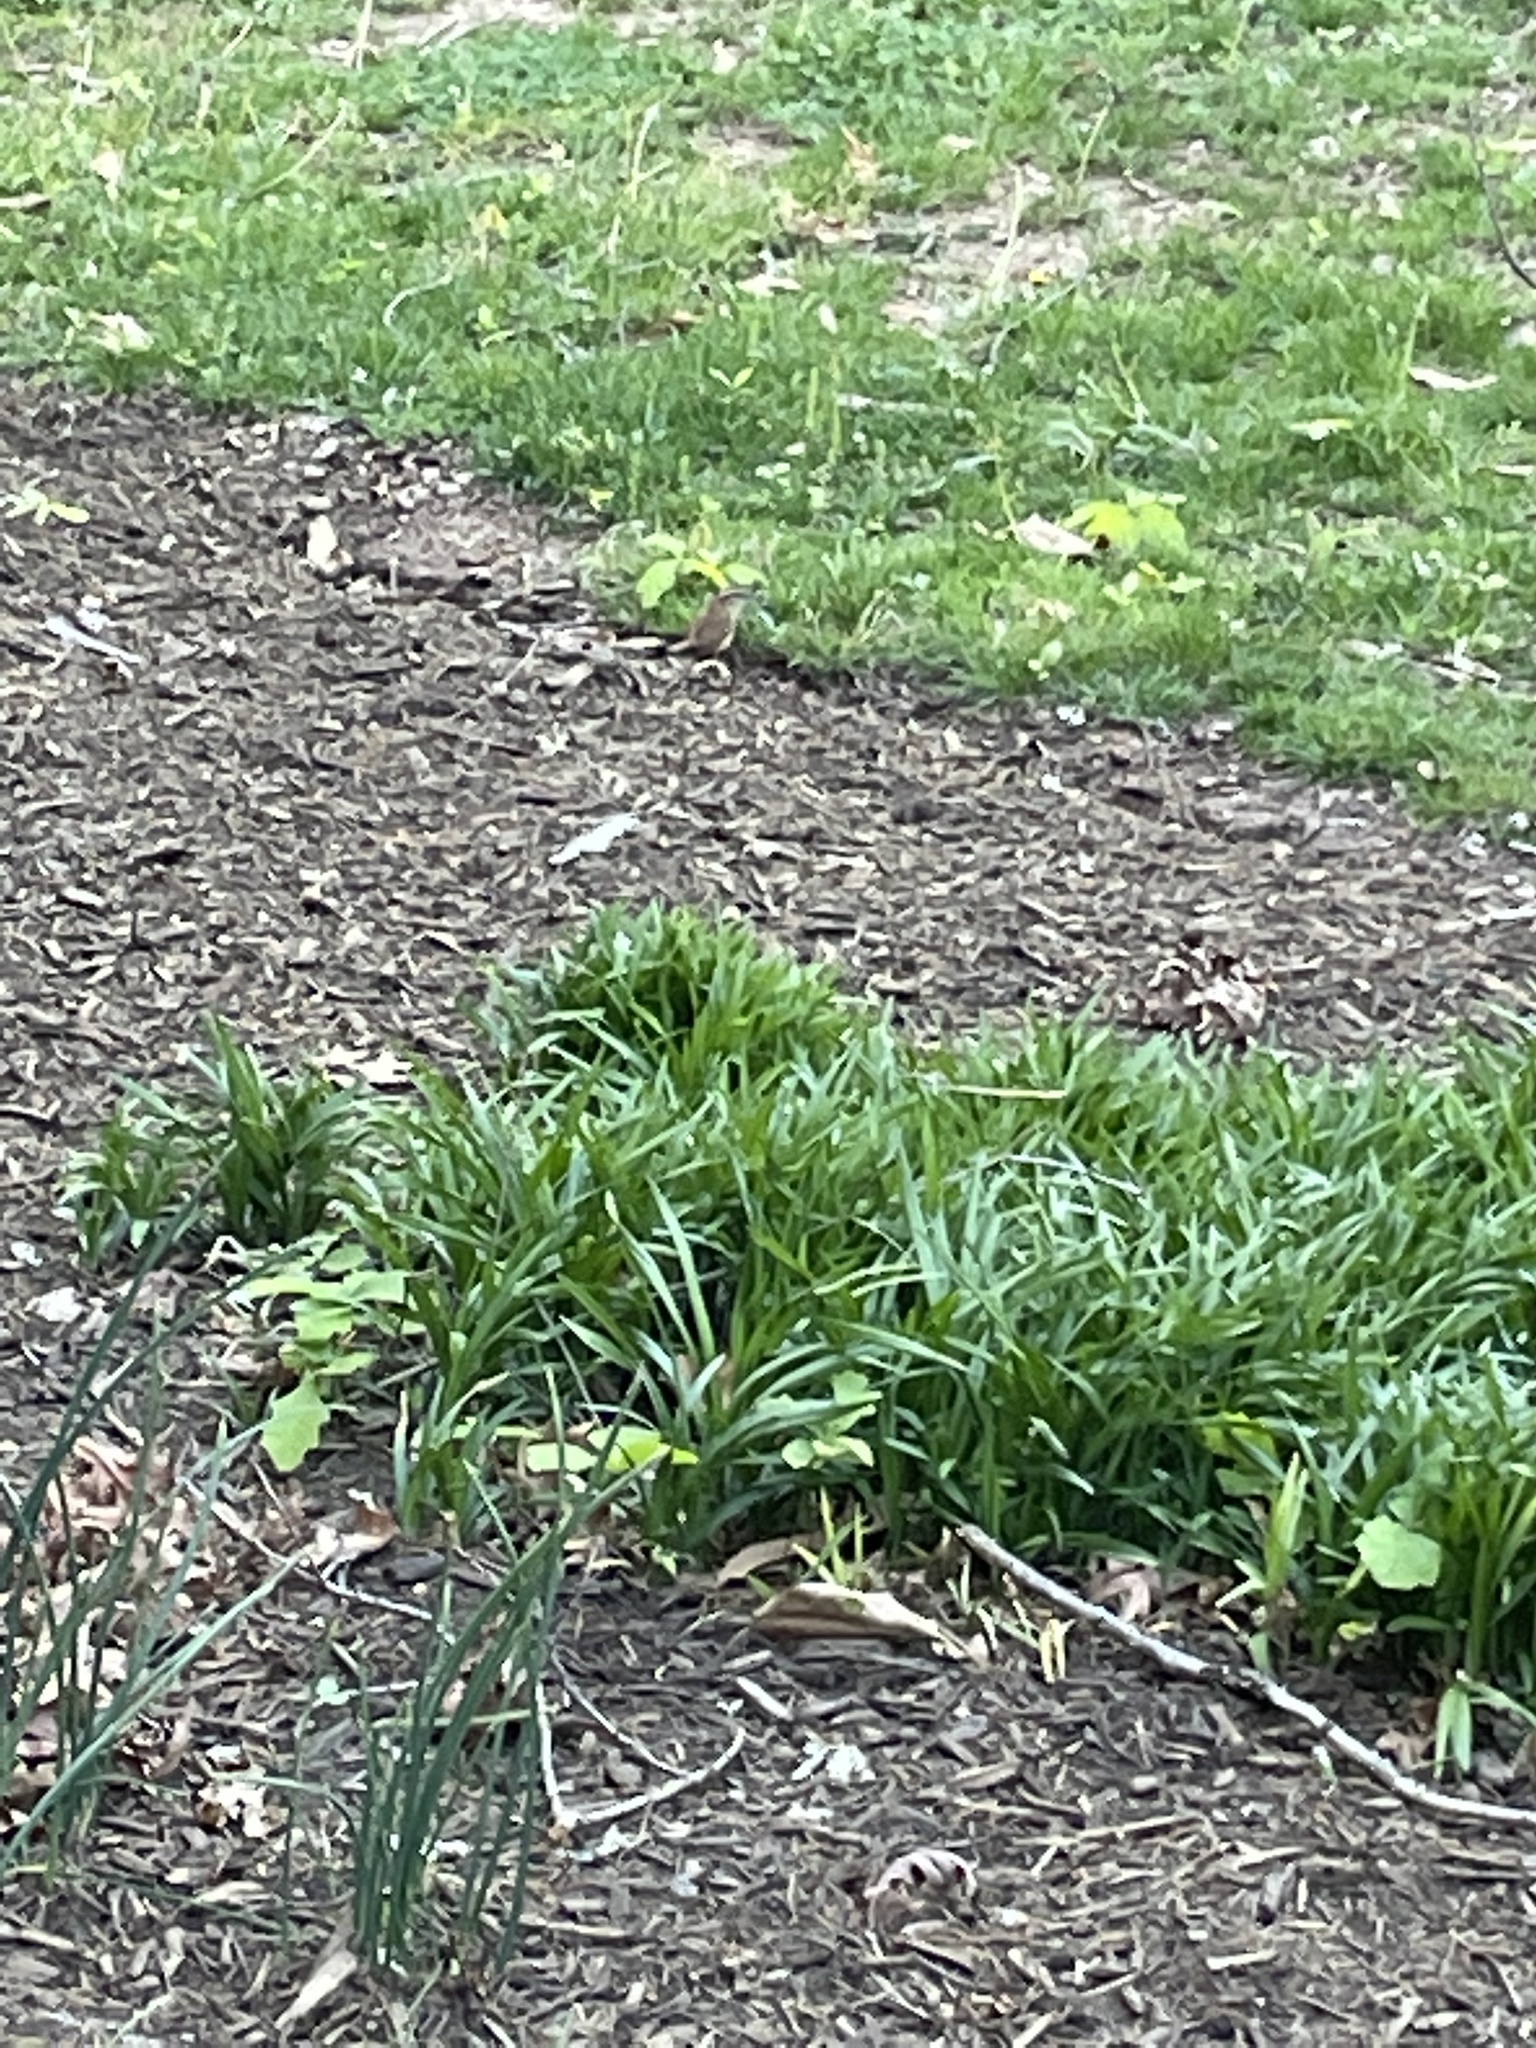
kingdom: Animalia
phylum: Chordata
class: Aves
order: Passeriformes
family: Troglodytidae
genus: Thryothorus
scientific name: Thryothorus ludovicianus
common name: Carolina wren
